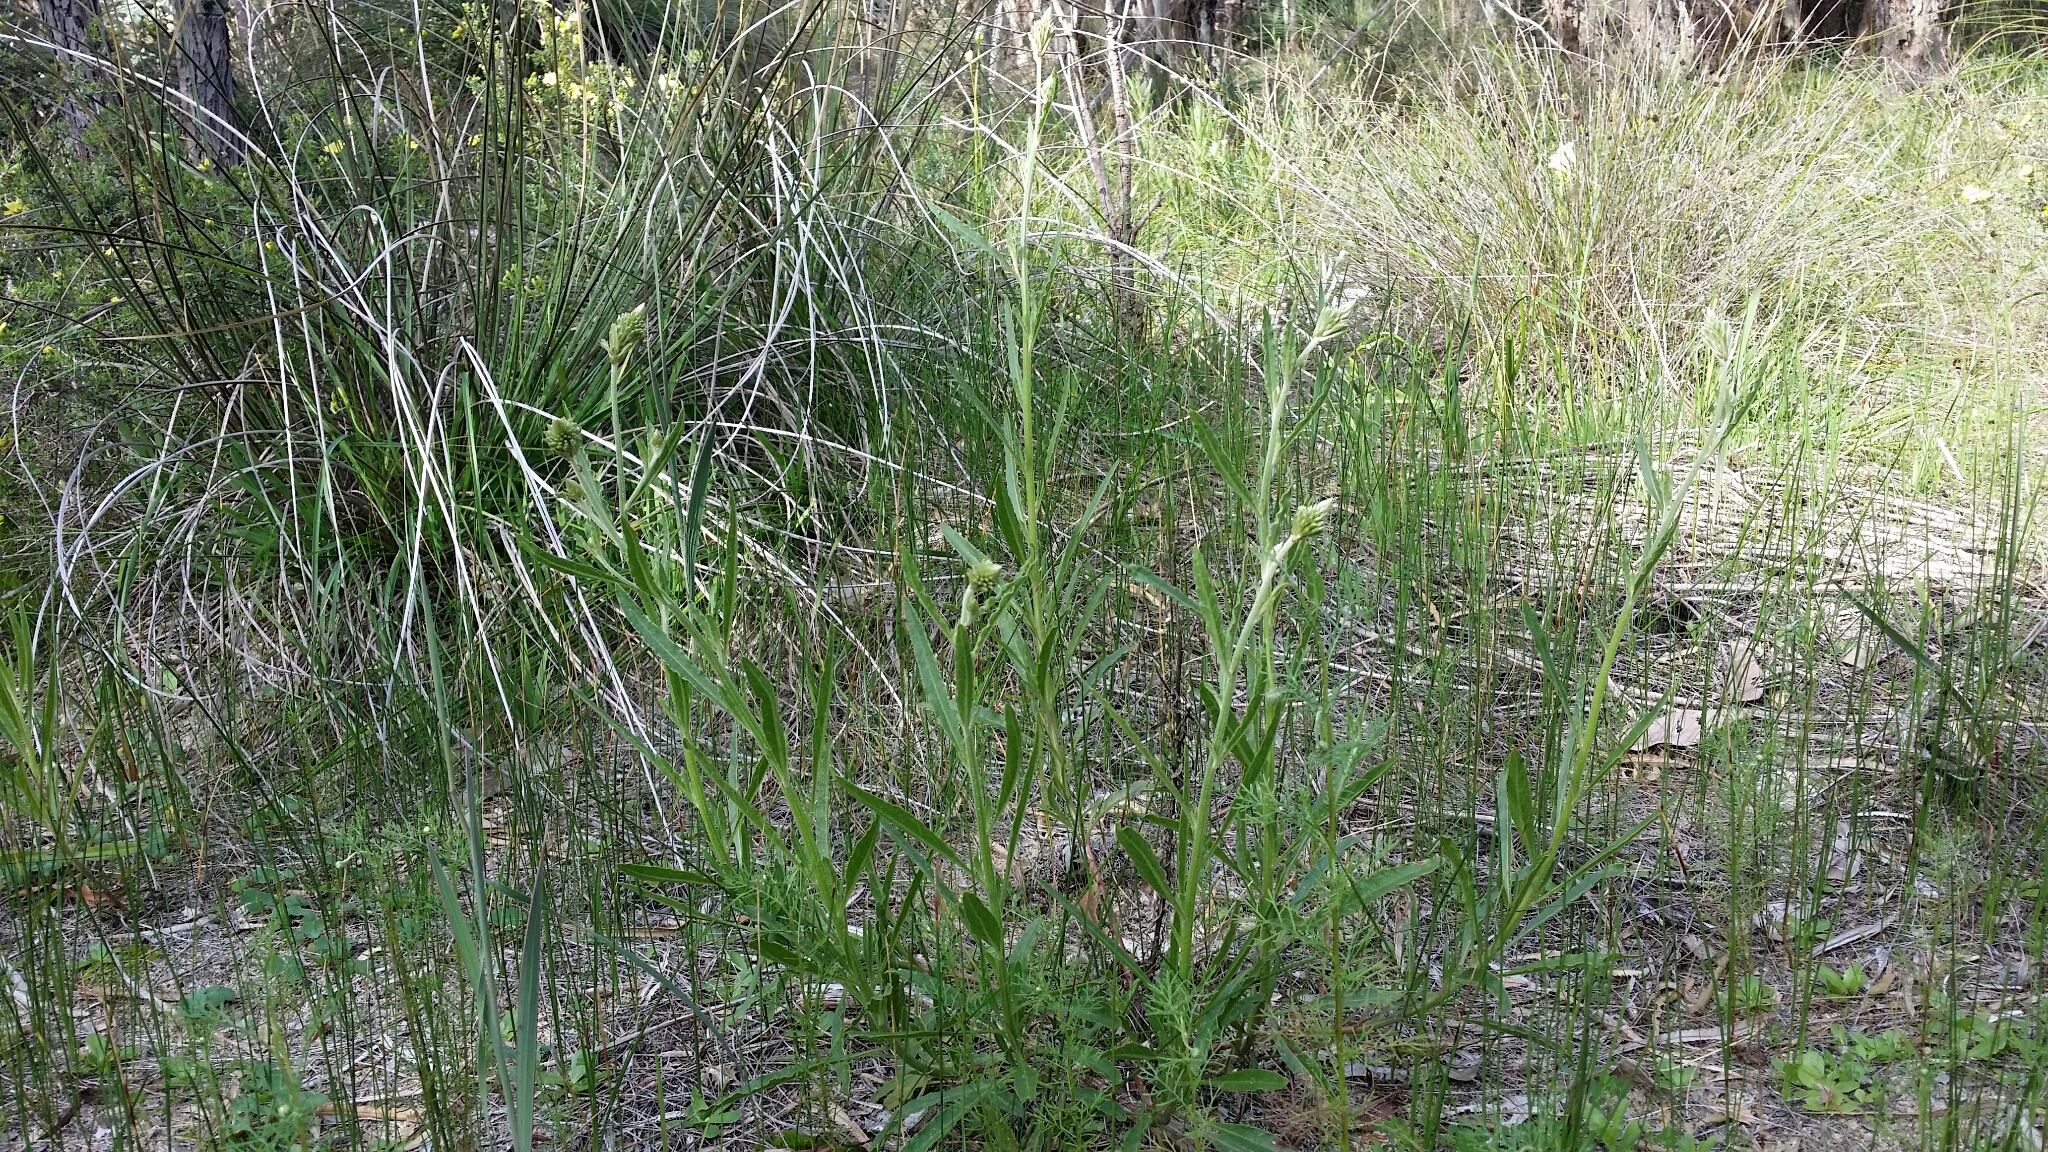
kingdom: Plantae
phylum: Tracheophyta
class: Magnoliopsida
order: Caryophyllales
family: Amaranthaceae
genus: Ptilotus
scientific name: Ptilotus polystachyus
